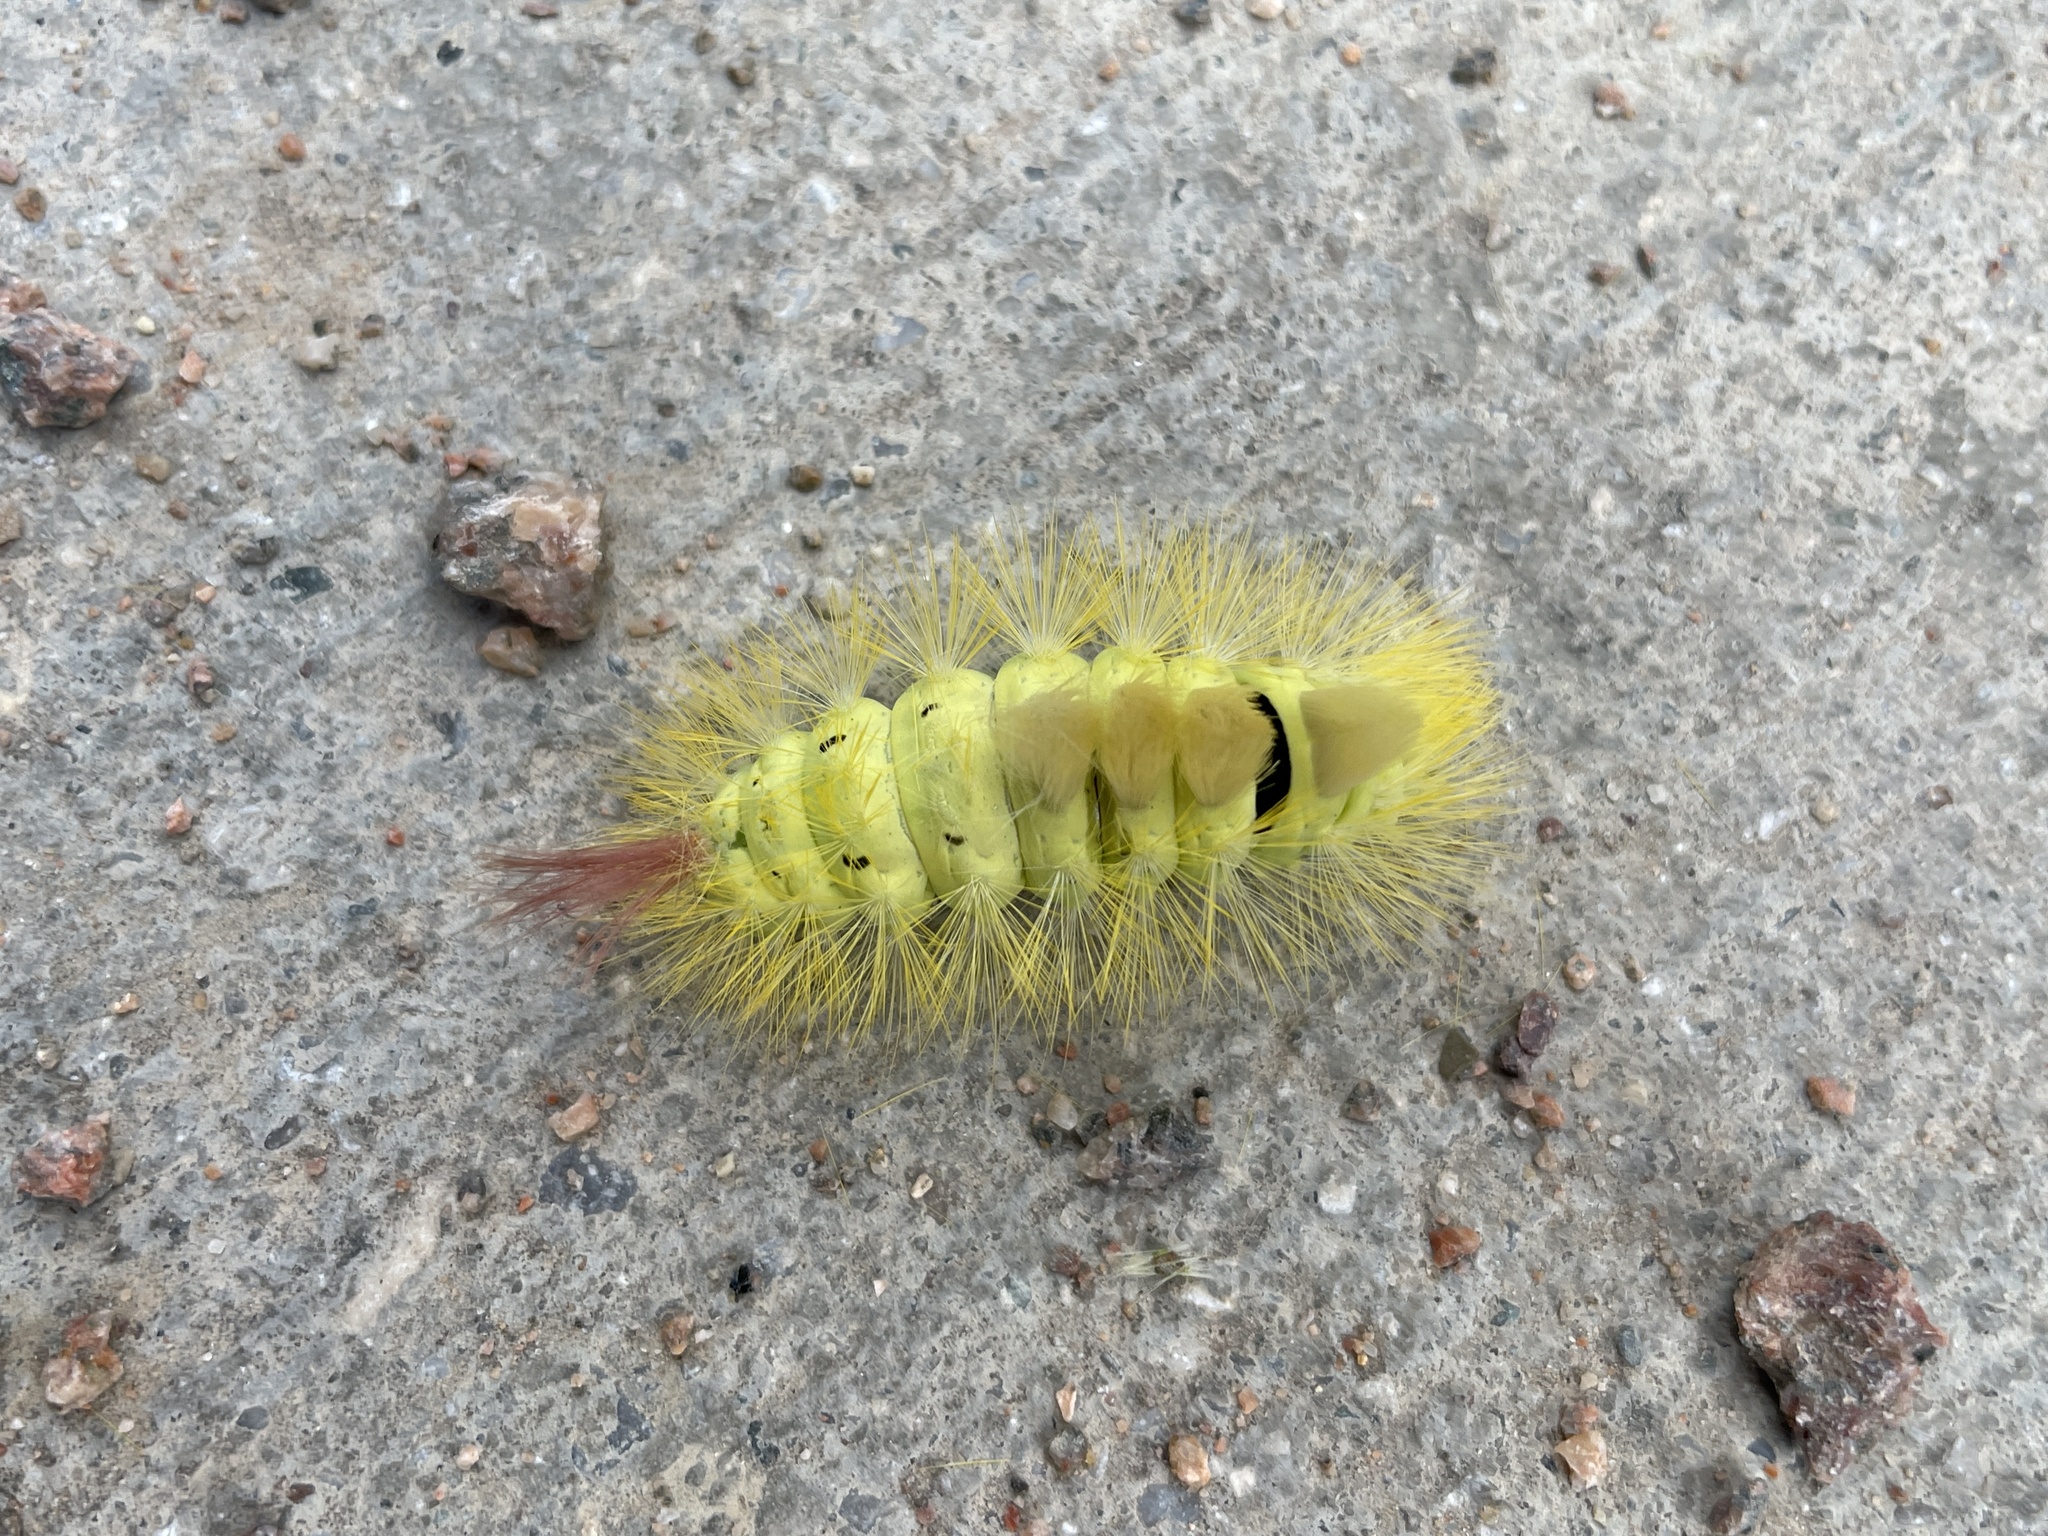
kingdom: Animalia
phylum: Arthropoda
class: Insecta
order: Lepidoptera
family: Erebidae
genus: Calliteara
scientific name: Calliteara pudibunda
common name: Pale tussock
